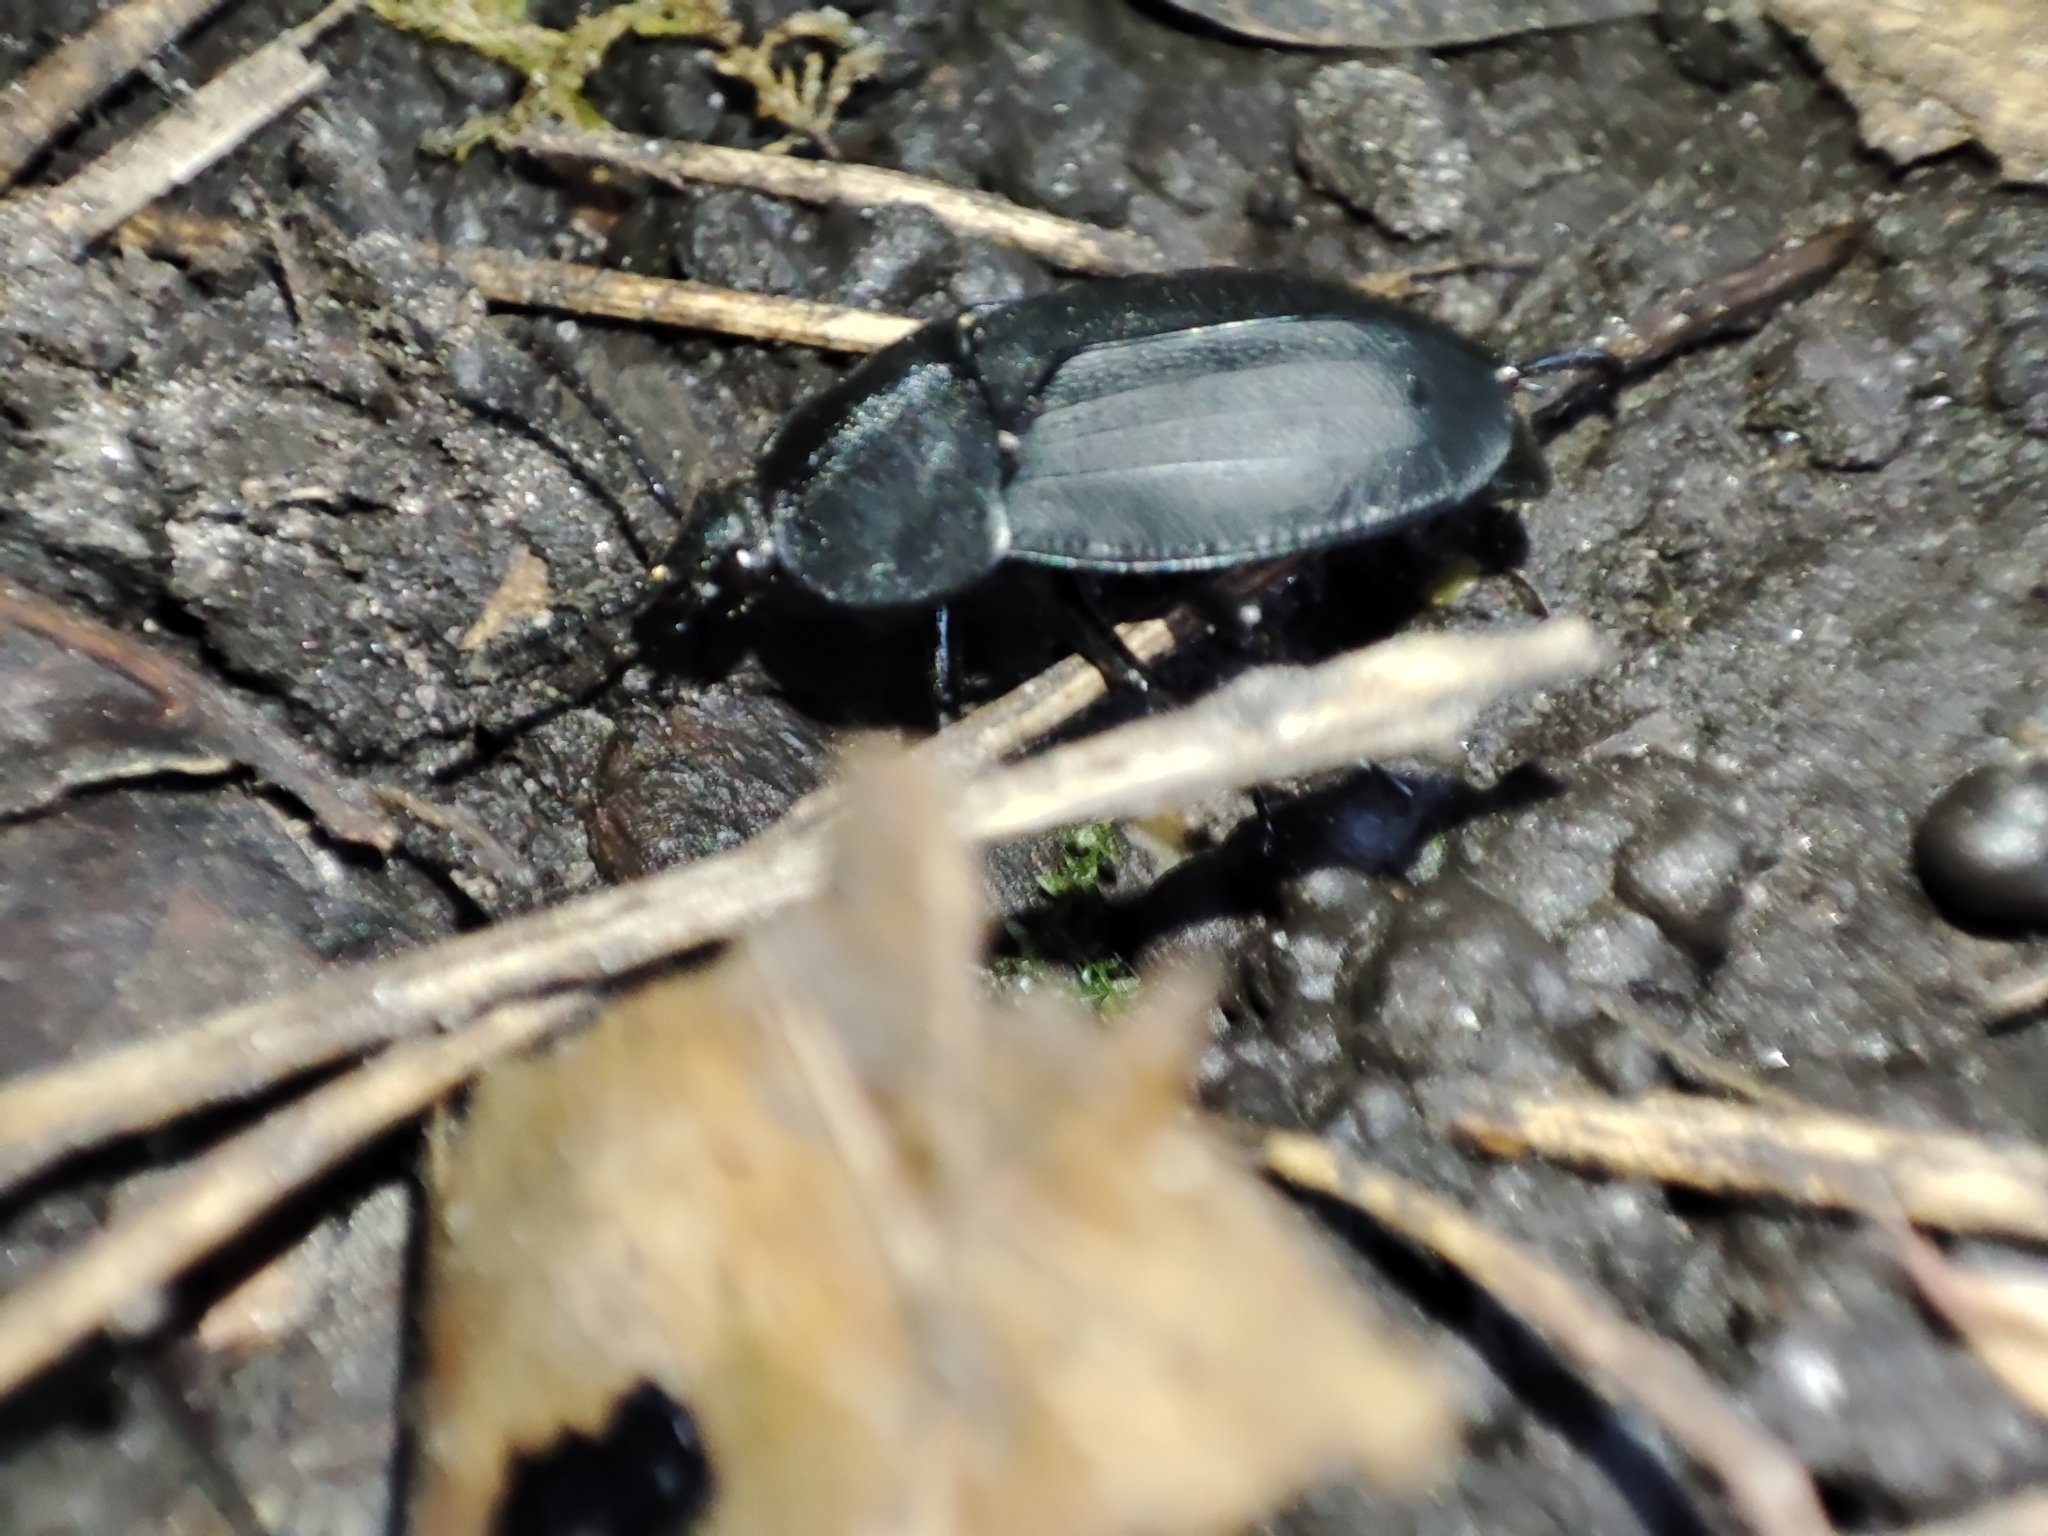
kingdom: Animalia
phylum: Arthropoda
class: Insecta
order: Coleoptera
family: Staphylinidae
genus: Silpha
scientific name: Silpha obscura
